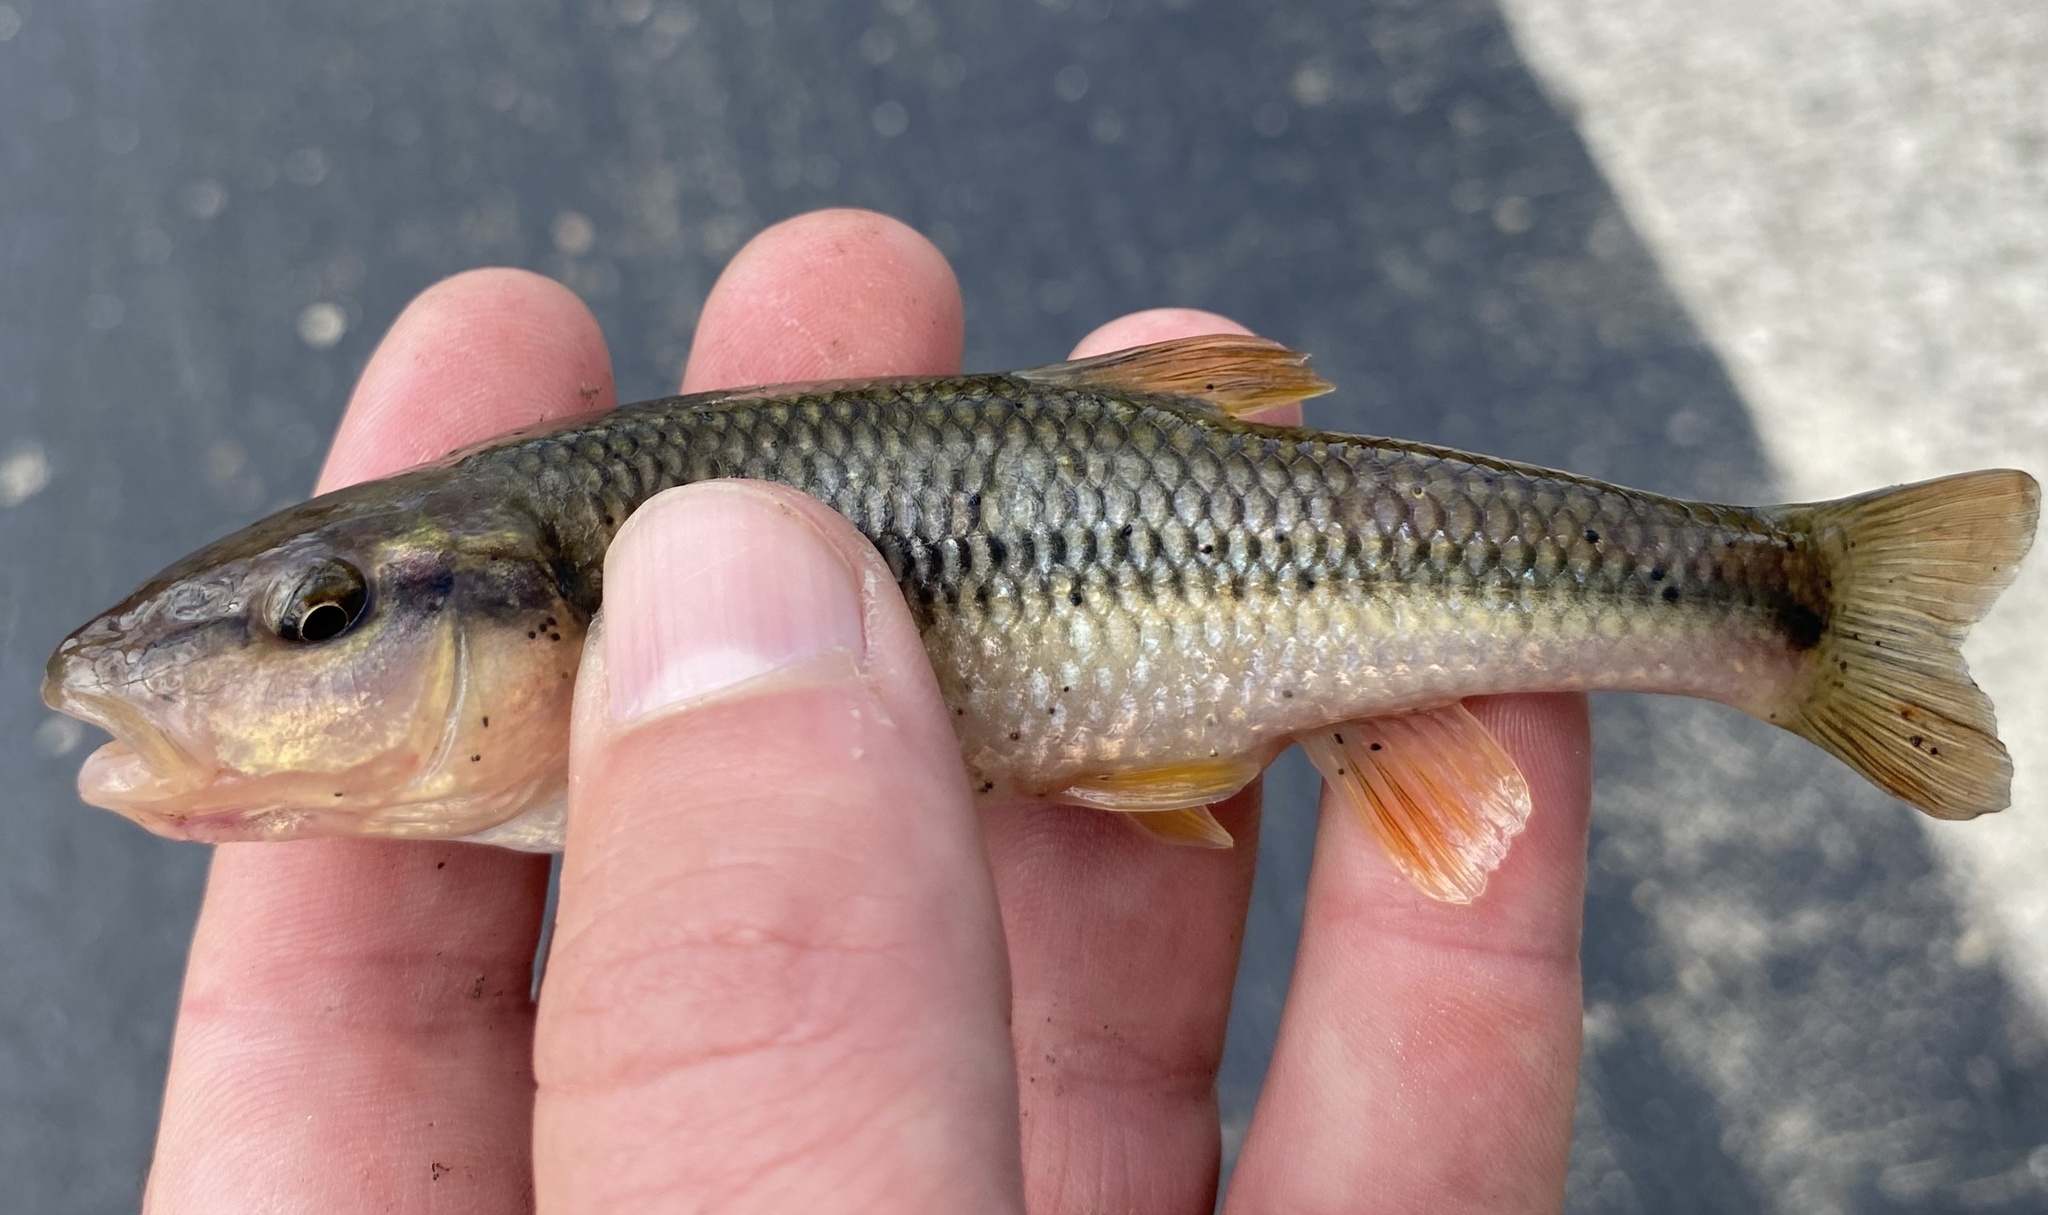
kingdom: Animalia
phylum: Chordata
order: Cypriniformes
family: Cyprinidae
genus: Nocomis
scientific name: Nocomis biguttatus
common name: Hornyhead chub
